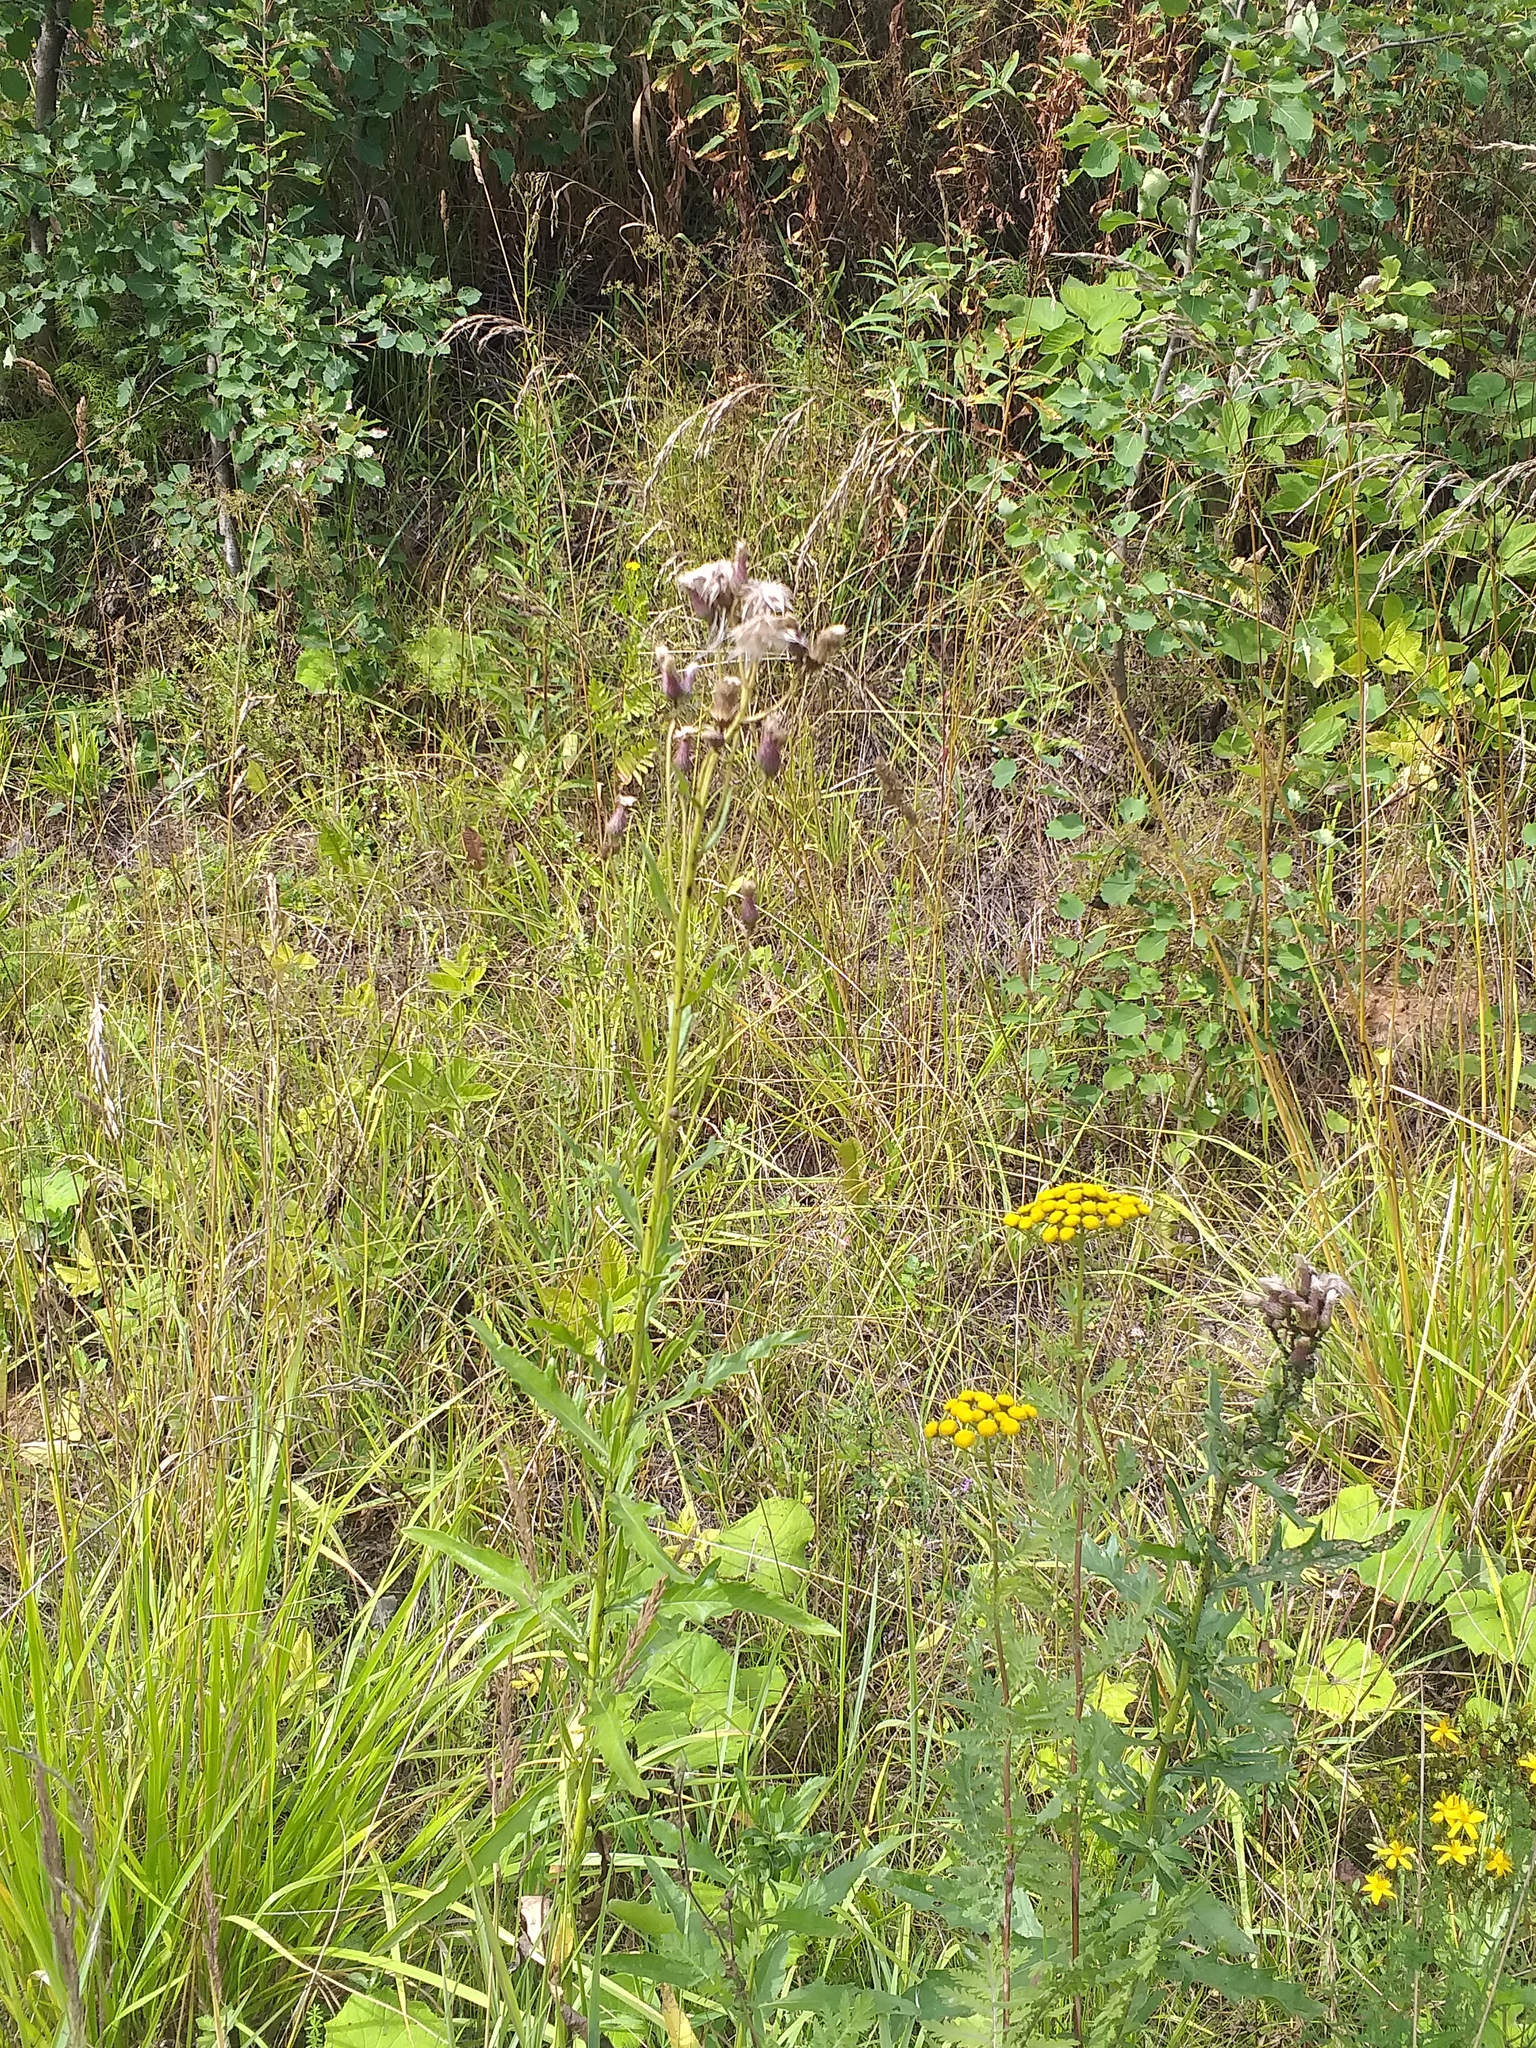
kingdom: Plantae
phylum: Tracheophyta
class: Magnoliopsida
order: Asterales
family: Asteraceae
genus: Cirsium
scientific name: Cirsium arvense
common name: Creeping thistle
